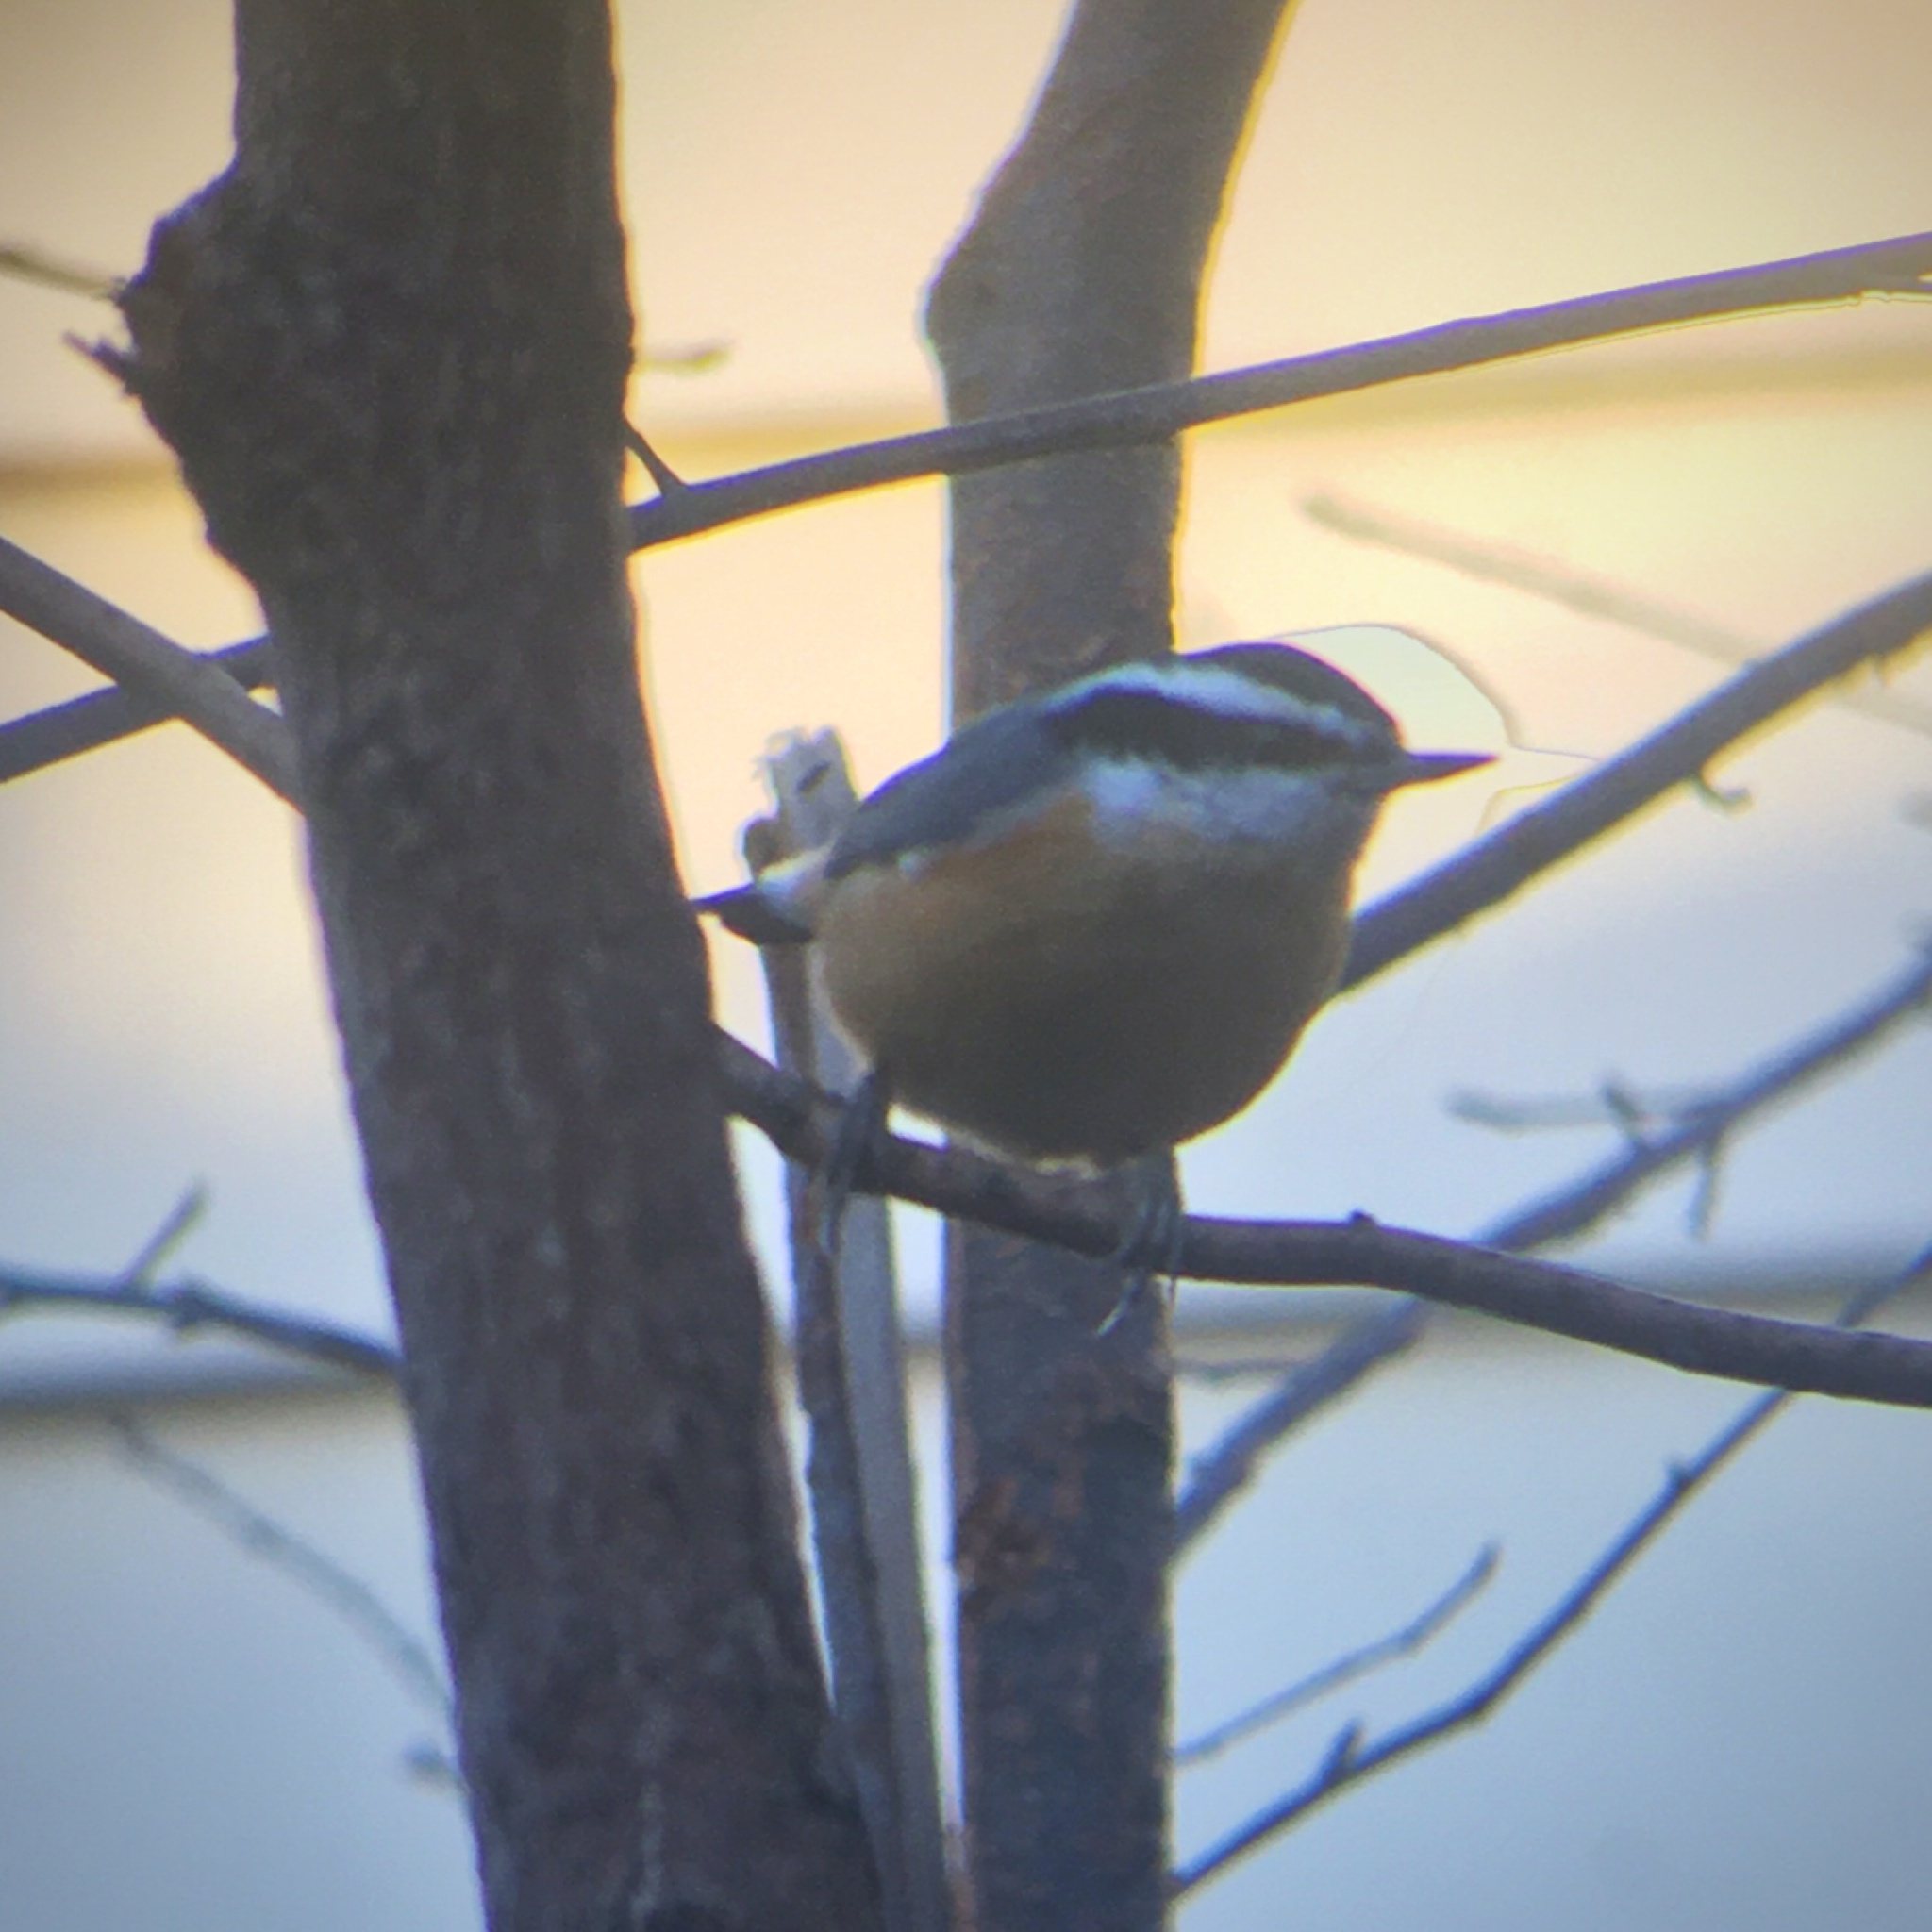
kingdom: Animalia
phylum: Chordata
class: Aves
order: Passeriformes
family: Sittidae
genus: Sitta
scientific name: Sitta canadensis
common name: Red-breasted nuthatch
